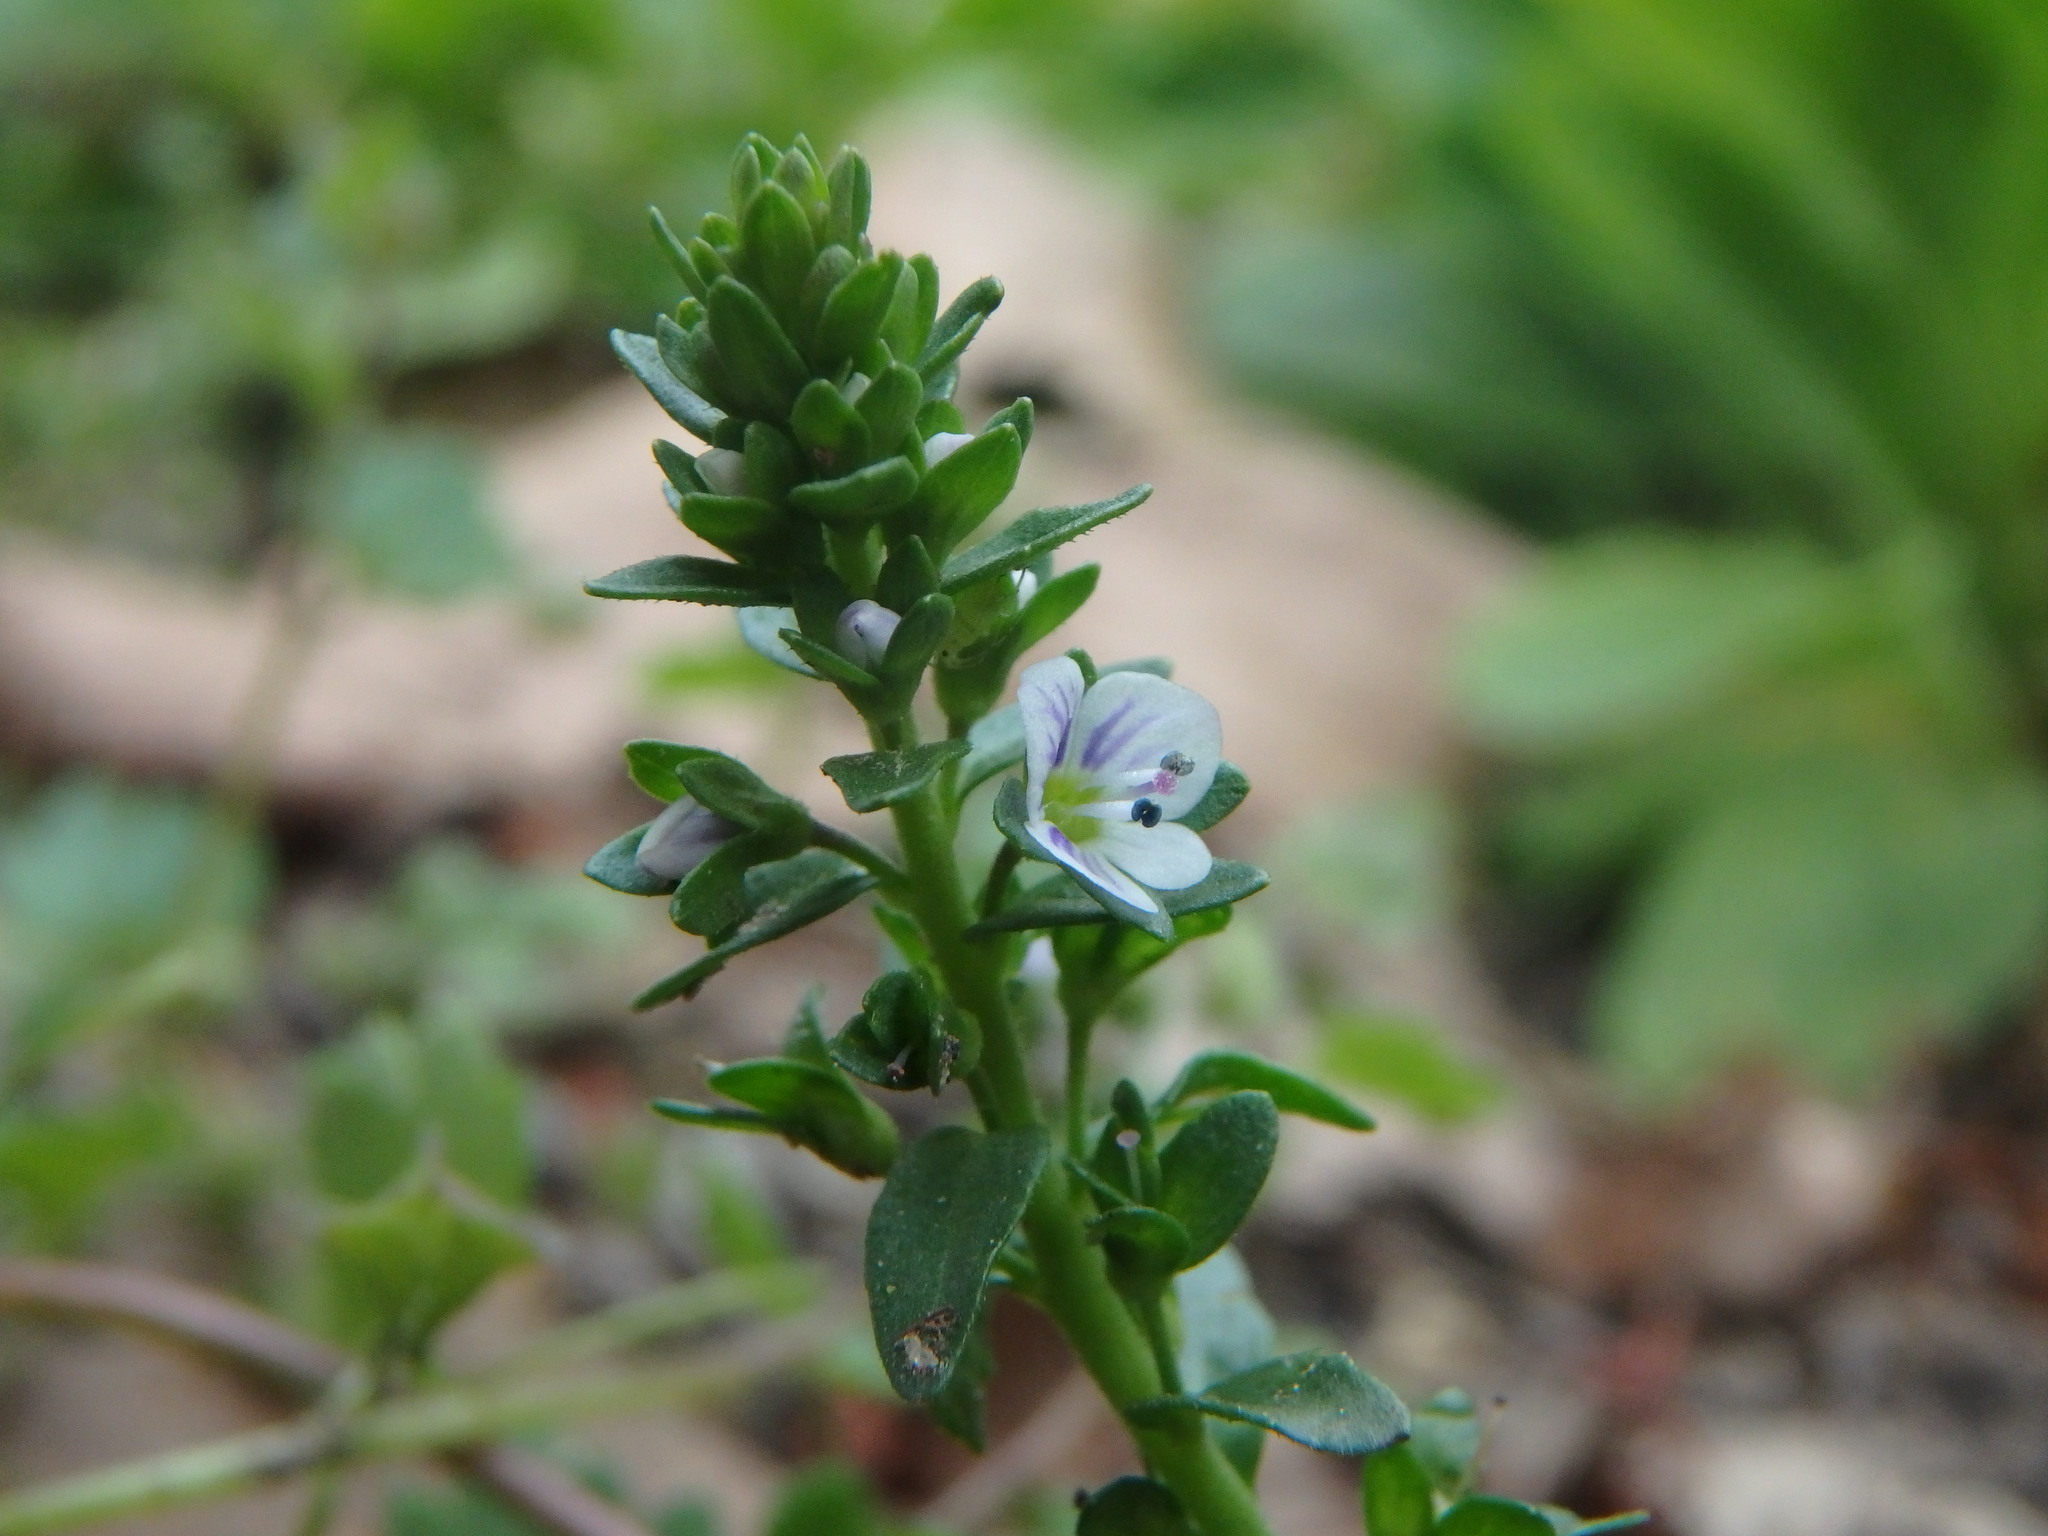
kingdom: Plantae
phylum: Tracheophyta
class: Magnoliopsida
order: Lamiales
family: Plantaginaceae
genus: Veronica
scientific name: Veronica serpyllifolia
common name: Thyme-leaved speedwell
